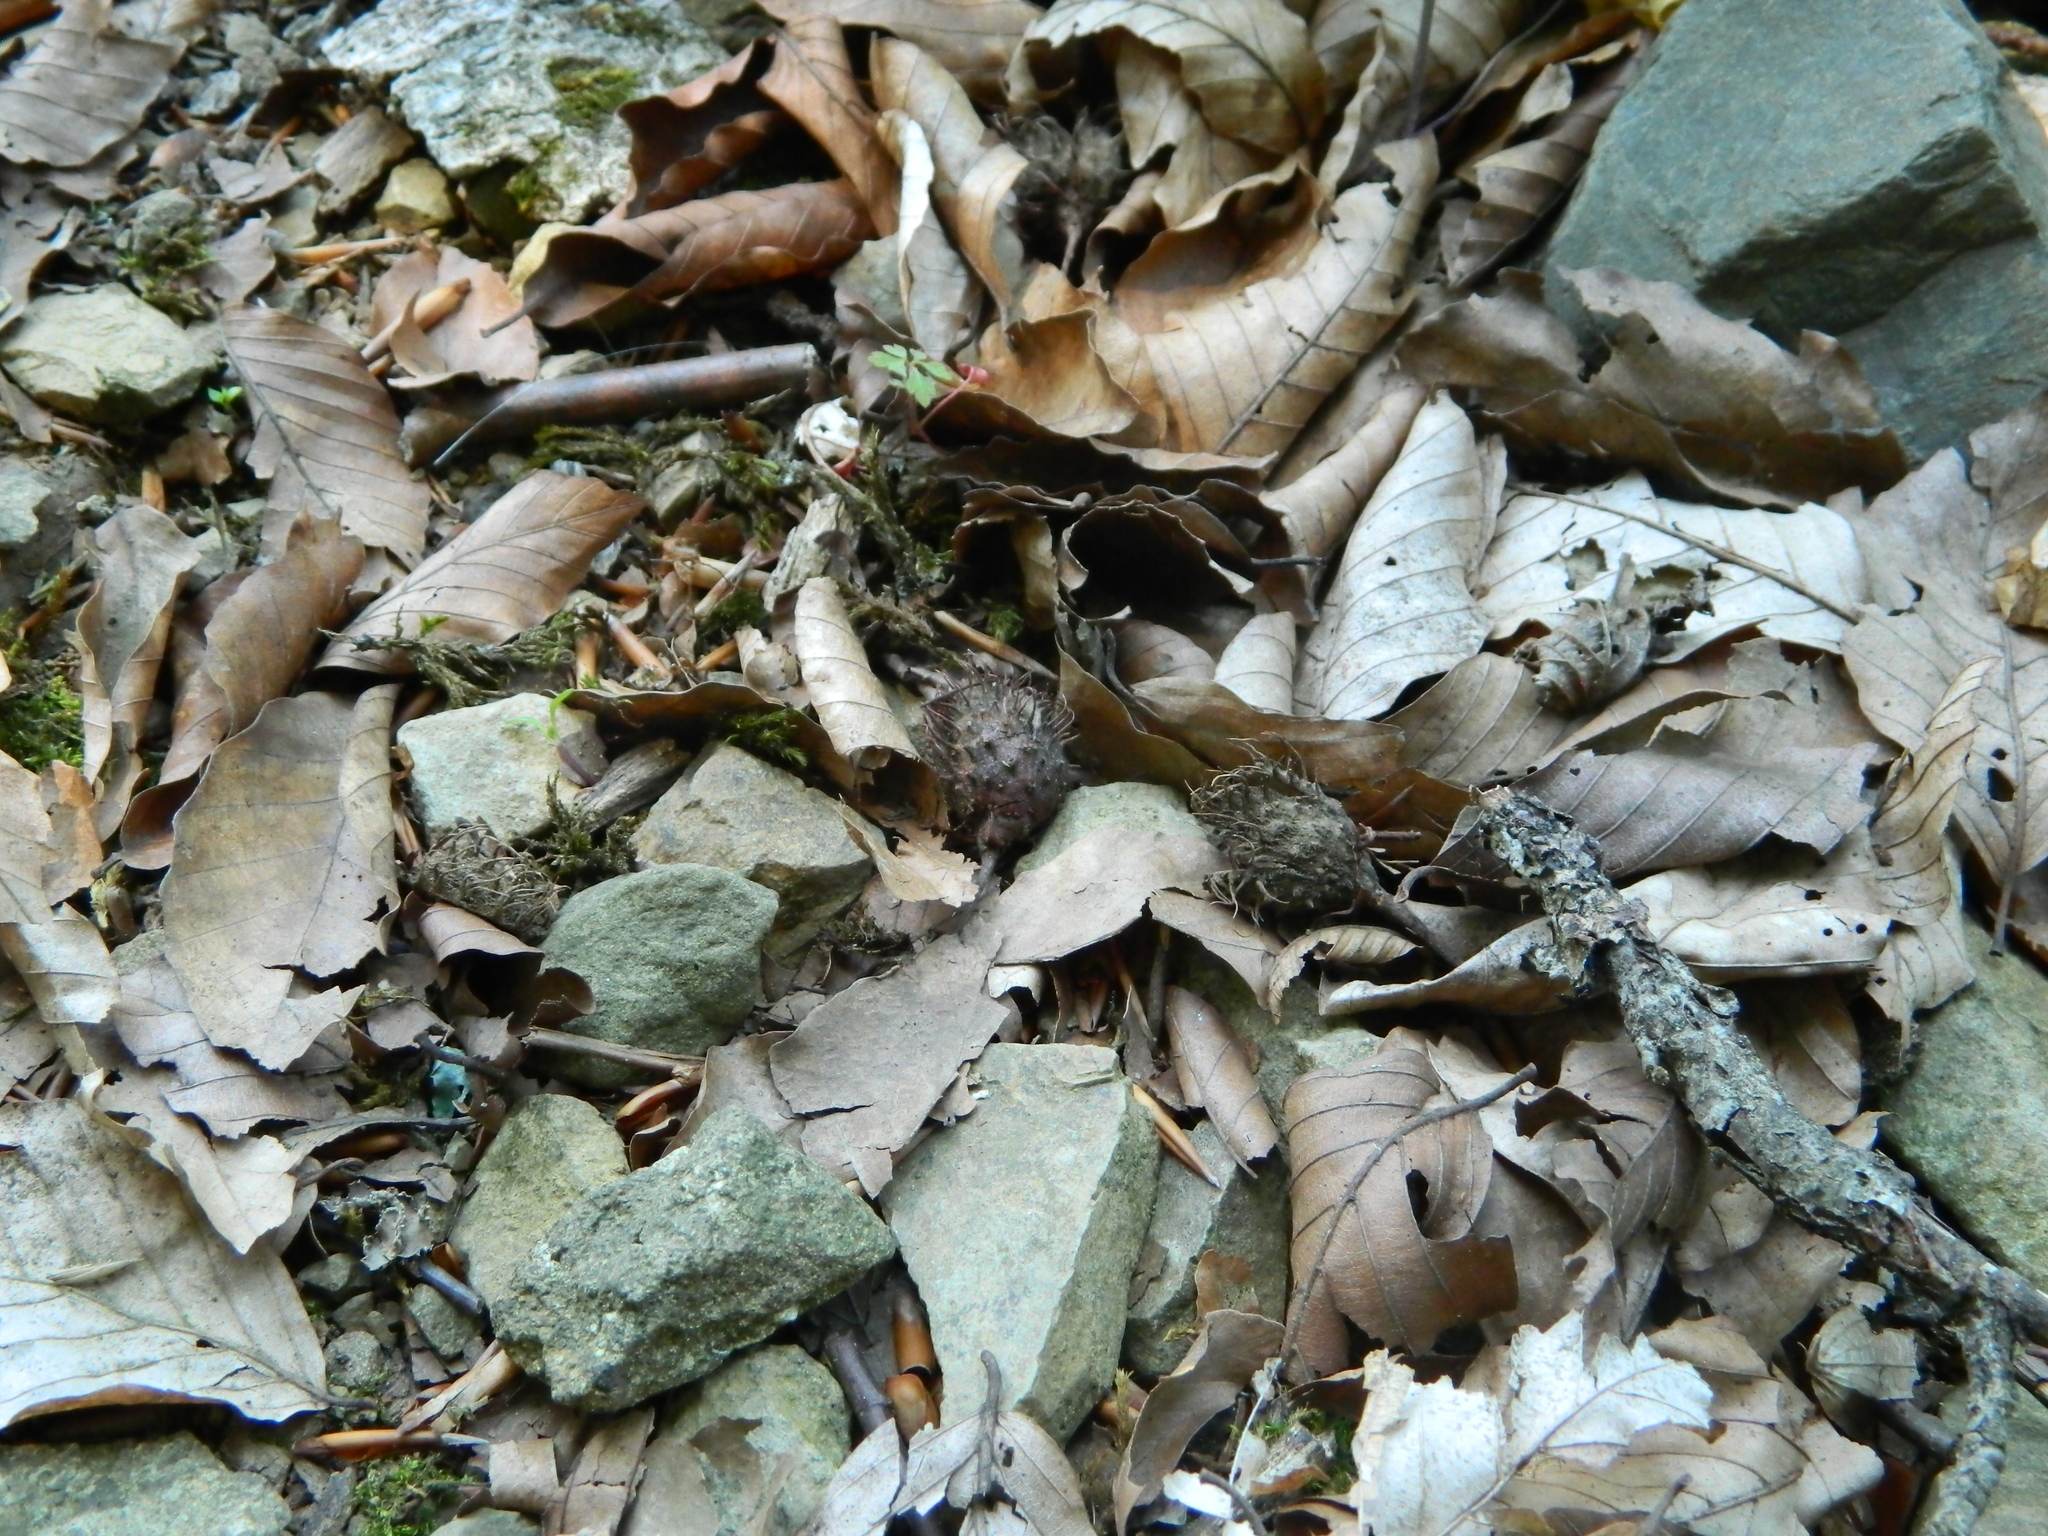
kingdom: Plantae
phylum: Tracheophyta
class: Magnoliopsida
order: Fagales
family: Fagaceae
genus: Fagus
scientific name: Fagus orientalis
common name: Oriental beech
